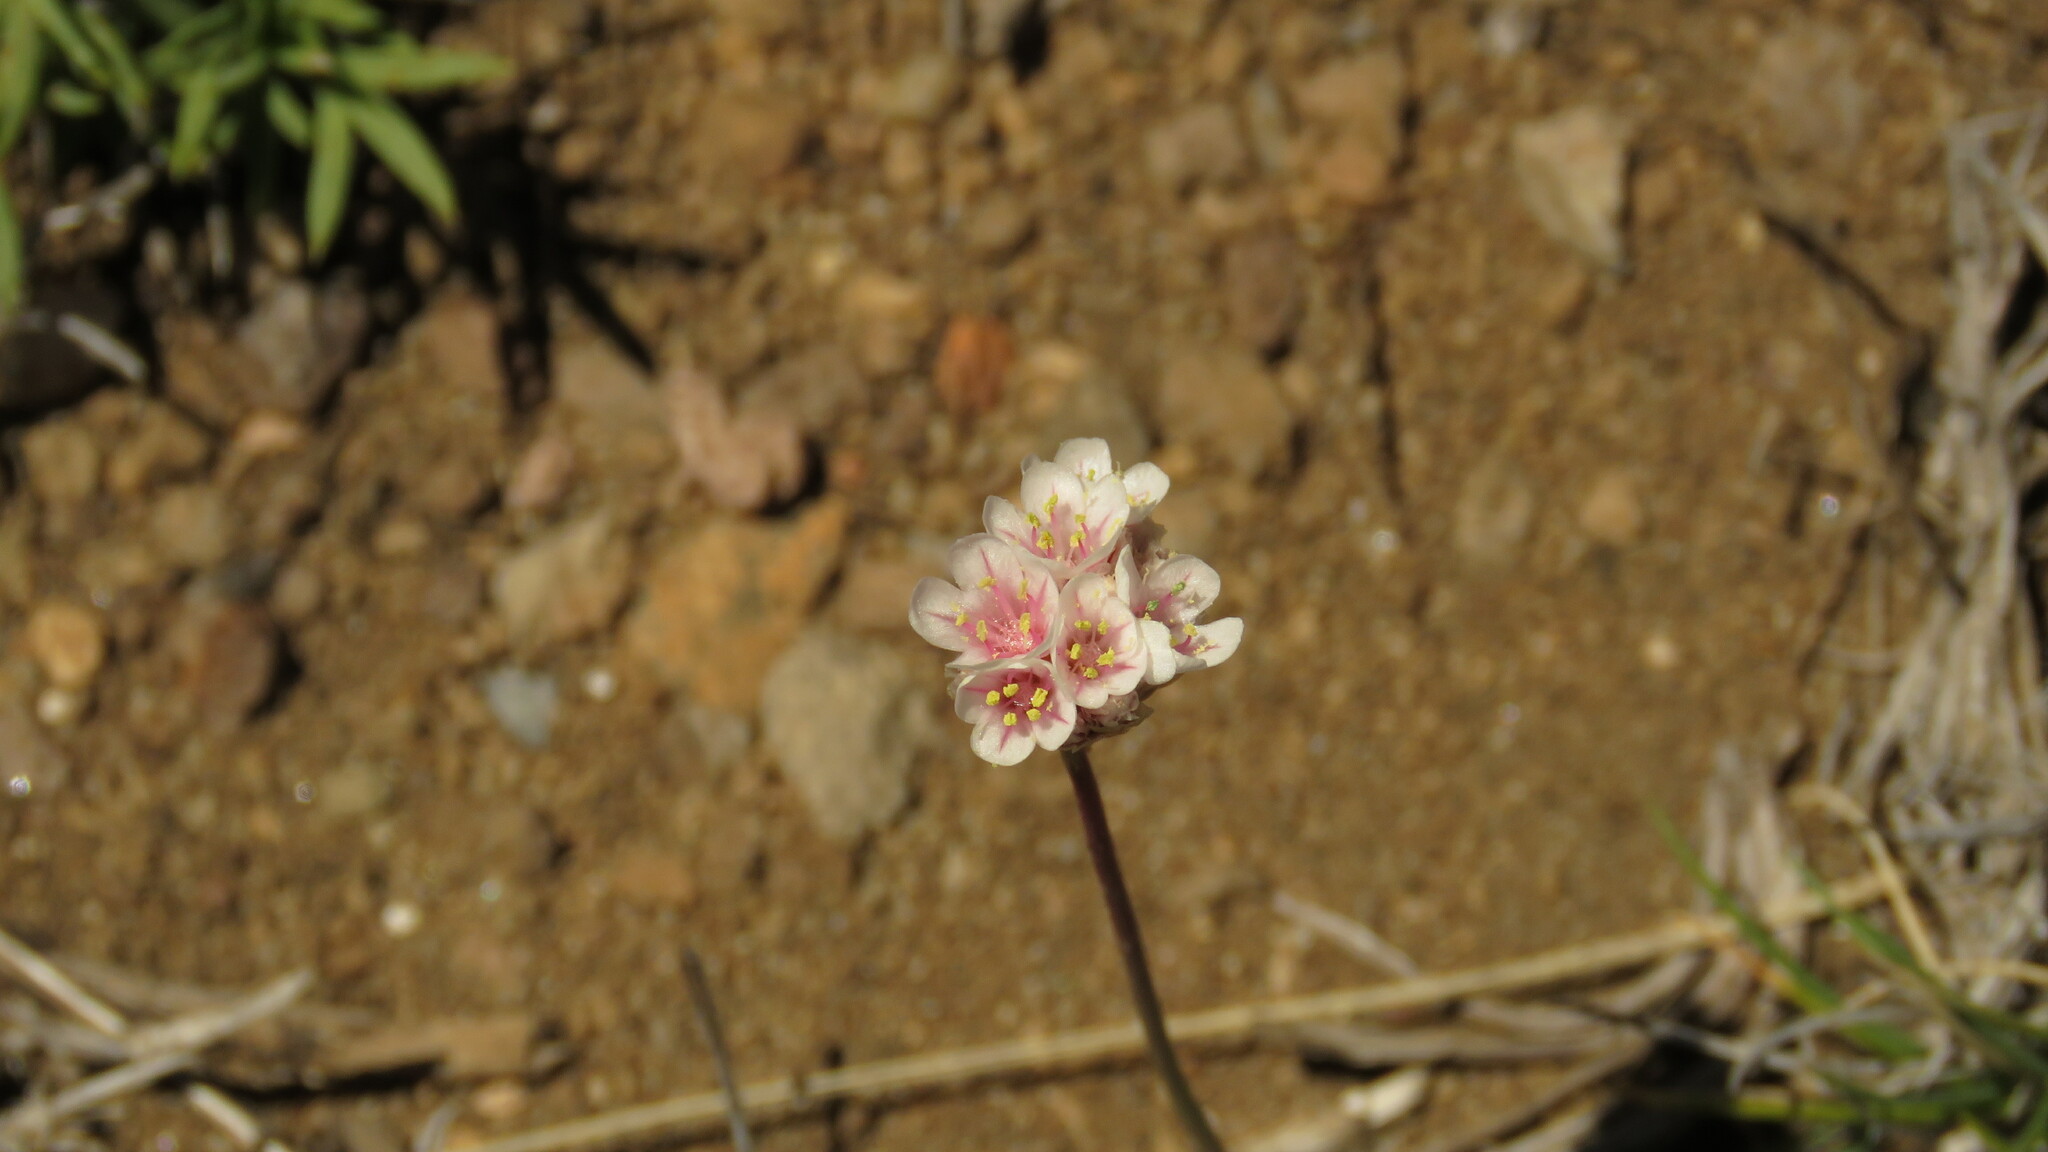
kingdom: Plantae
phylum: Tracheophyta
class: Magnoliopsida
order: Caryophyllales
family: Plumbaginaceae
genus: Armeria
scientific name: Armeria curvifolia
